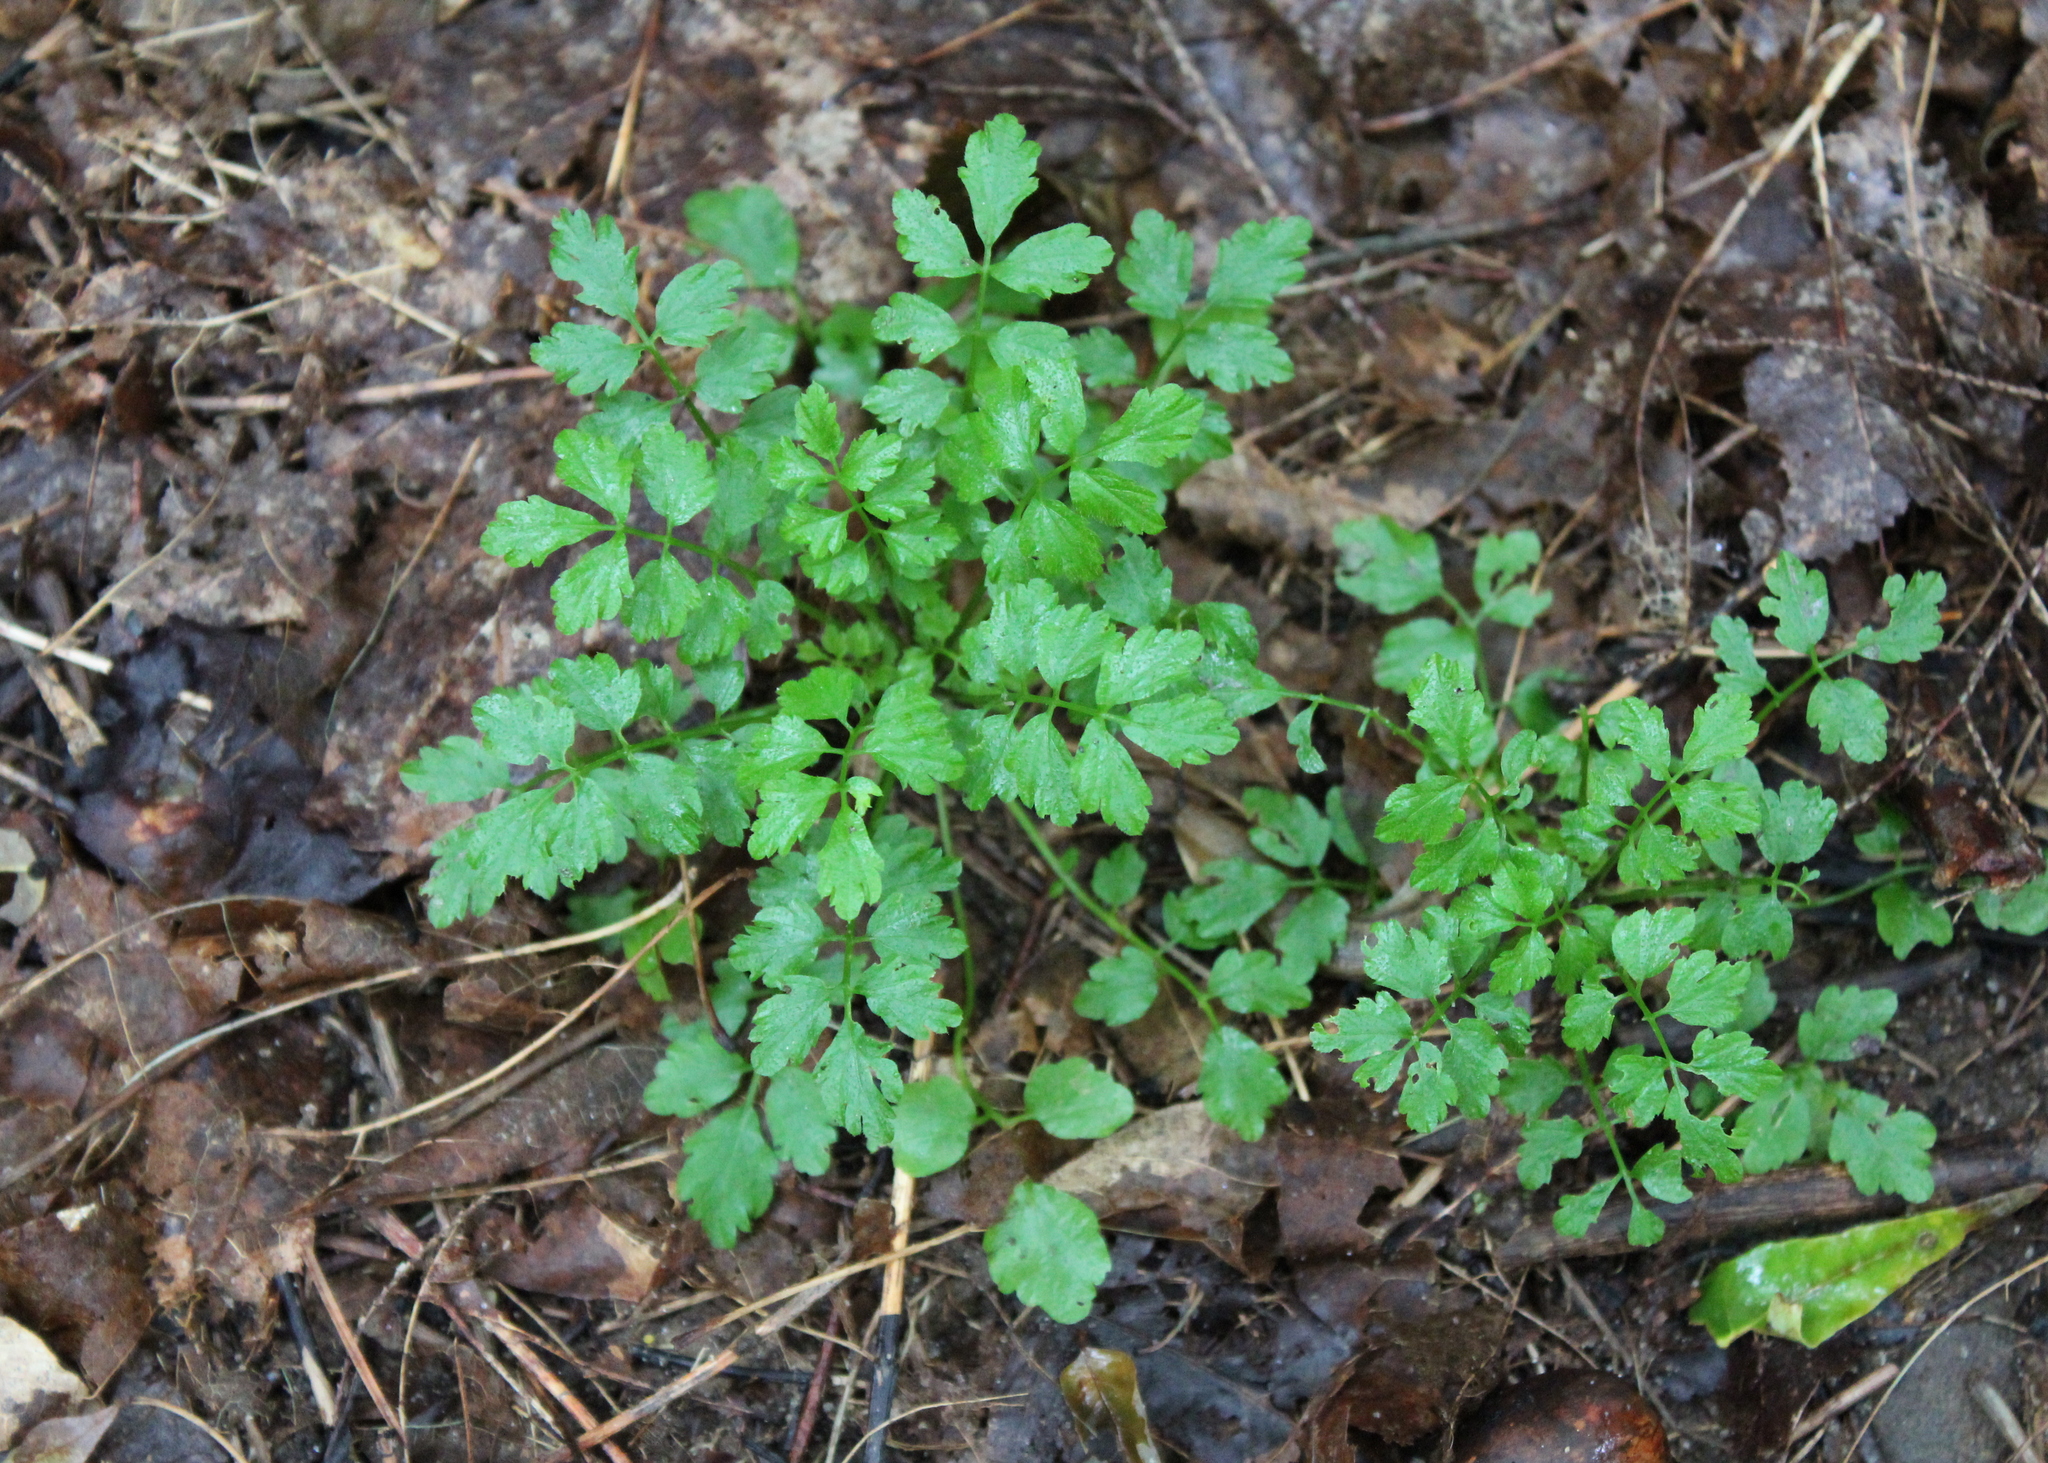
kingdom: Plantae
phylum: Tracheophyta
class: Magnoliopsida
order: Brassicales
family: Brassicaceae
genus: Cardamine
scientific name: Cardamine impatiens
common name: Narrow-leaved bitter-cress
